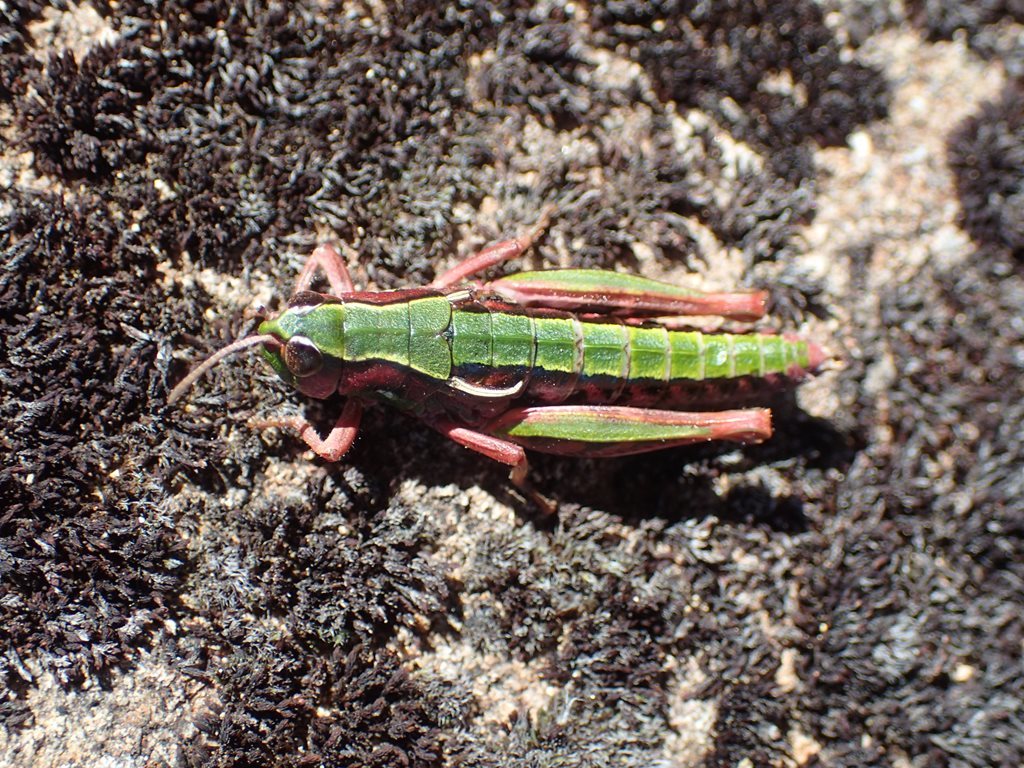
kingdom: Animalia
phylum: Arthropoda
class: Insecta
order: Orthoptera
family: Acrididae
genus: Russalpia
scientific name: Russalpia longifurca
